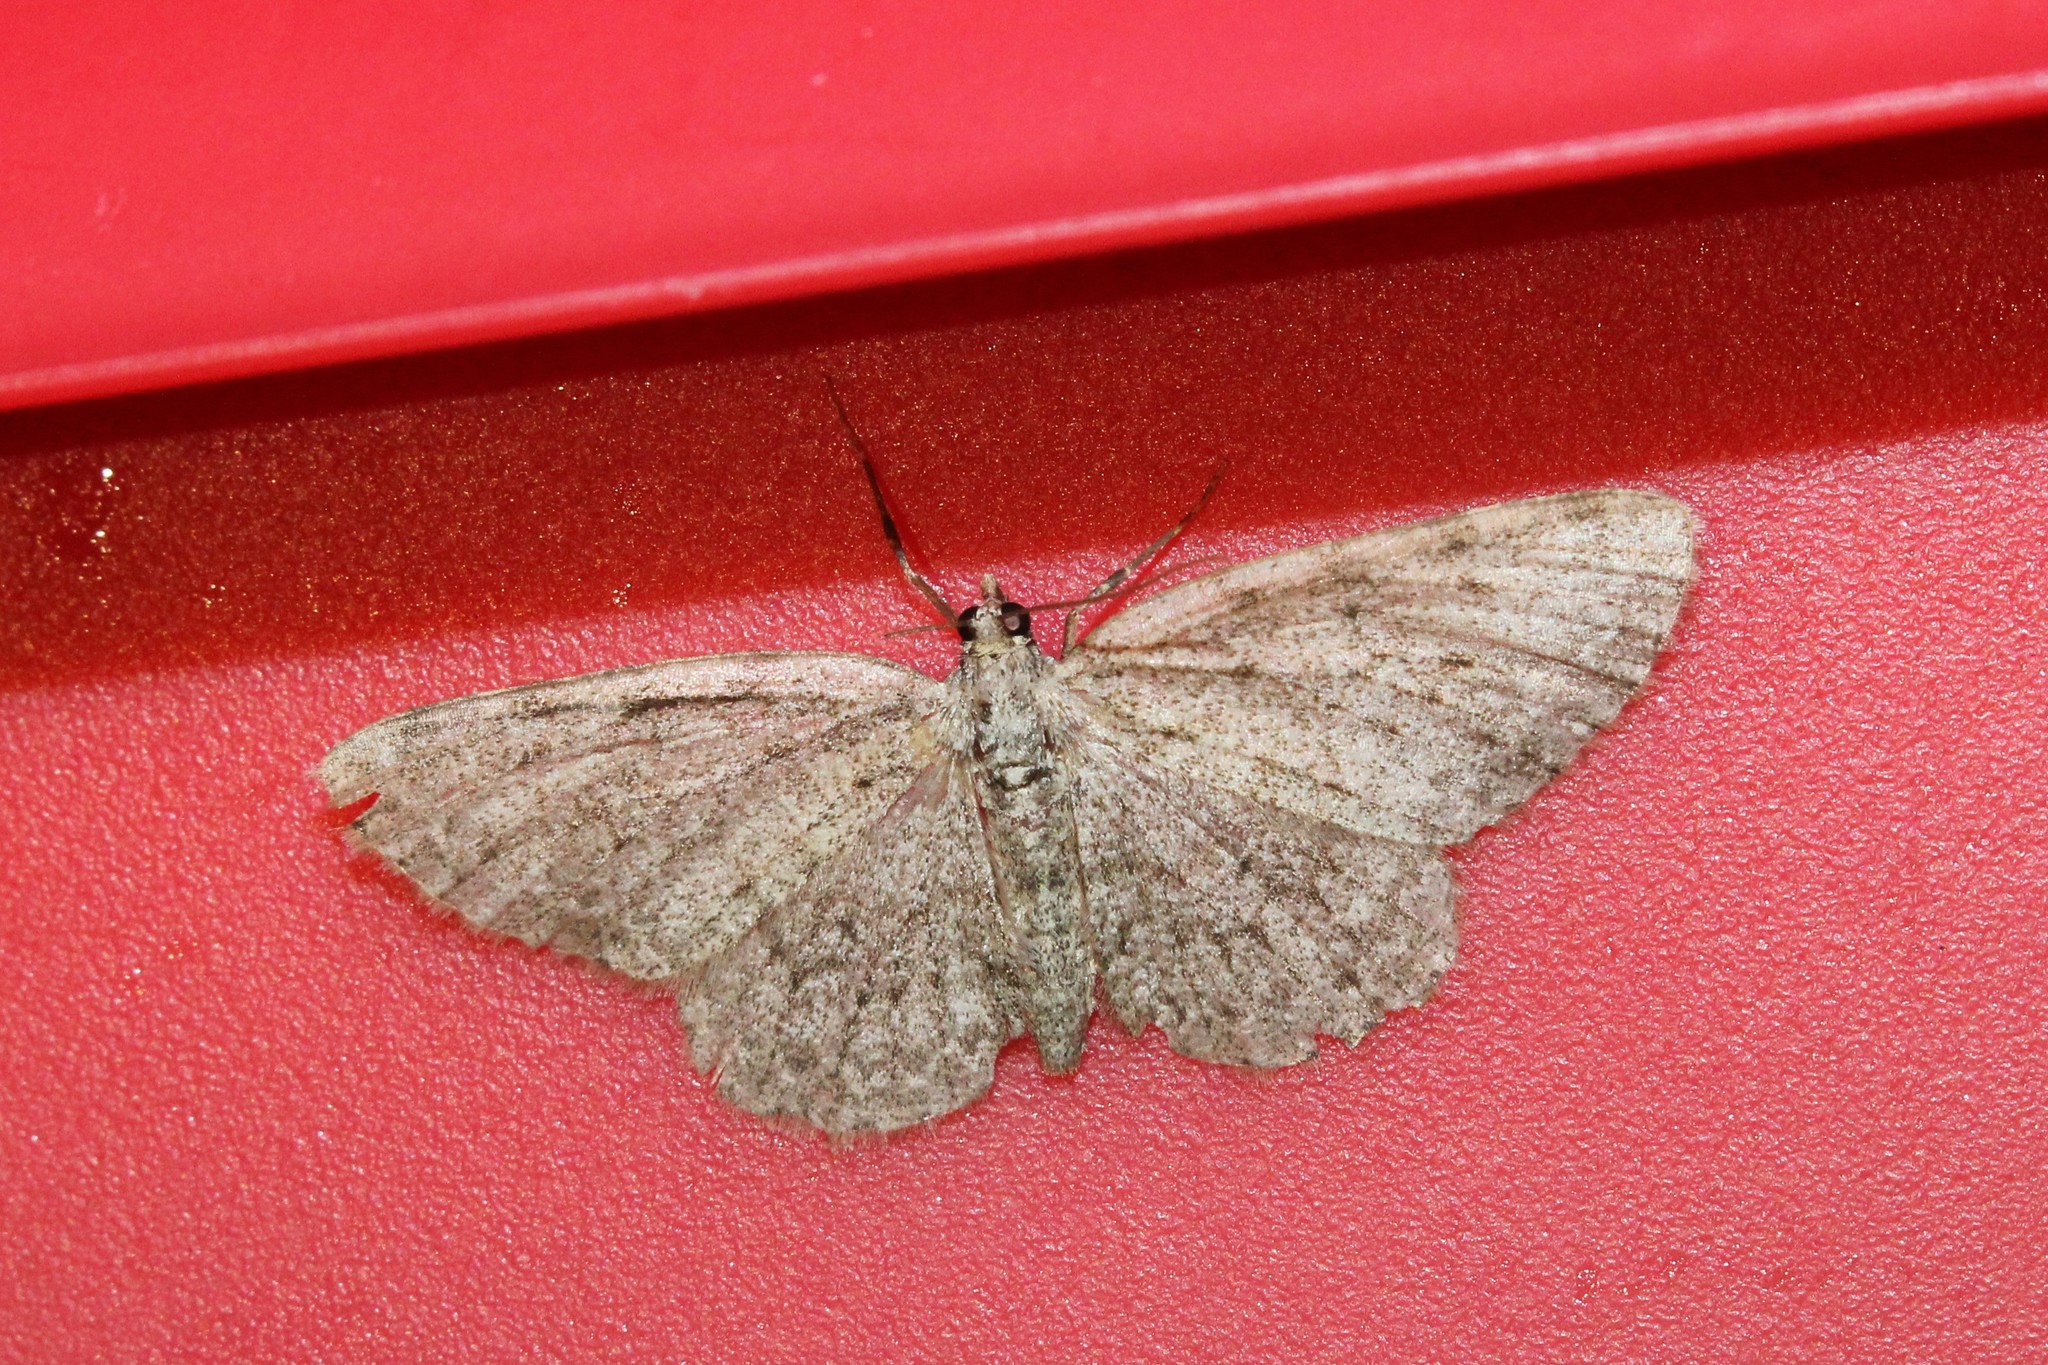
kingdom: Animalia
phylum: Arthropoda
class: Insecta
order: Lepidoptera
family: Geometridae
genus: Protoboarmia
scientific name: Protoboarmia porcelaria
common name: Porcelain gray
